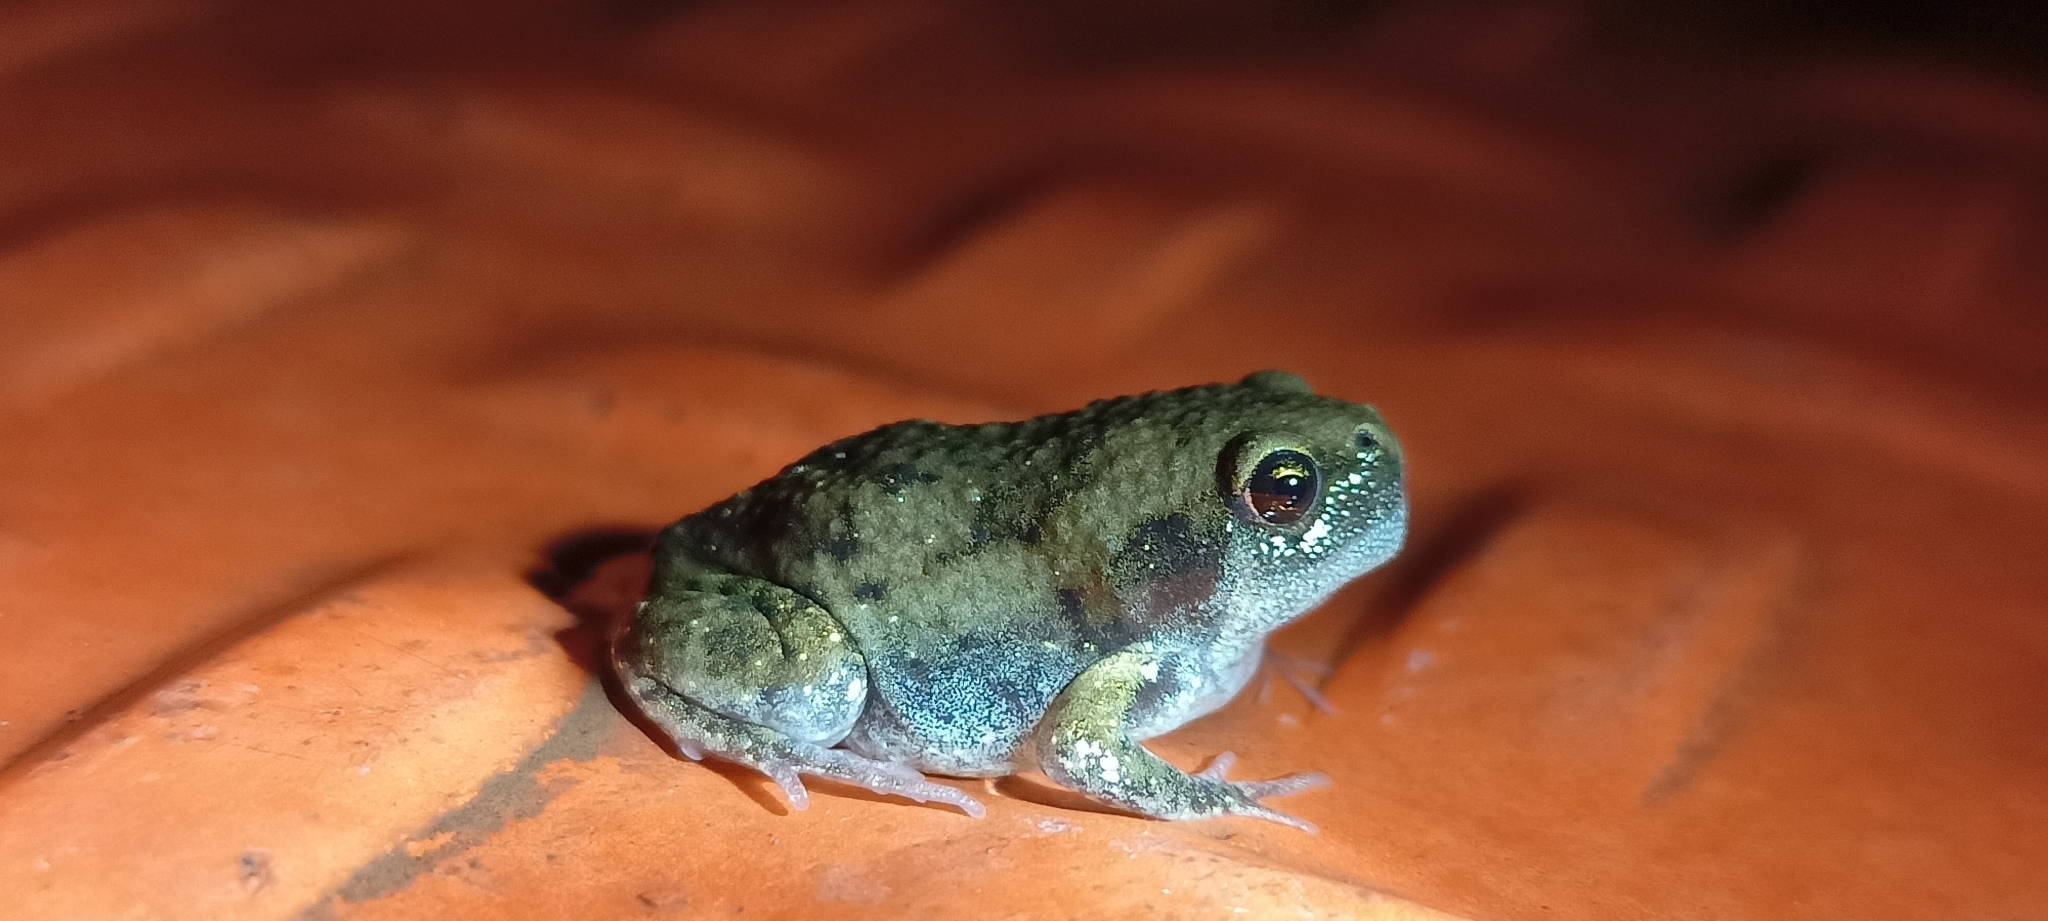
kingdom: Animalia
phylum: Chordata
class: Amphibia
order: Anura
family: Microhylidae
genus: Uperodon
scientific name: Uperodon systoma
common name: Balloon frog
